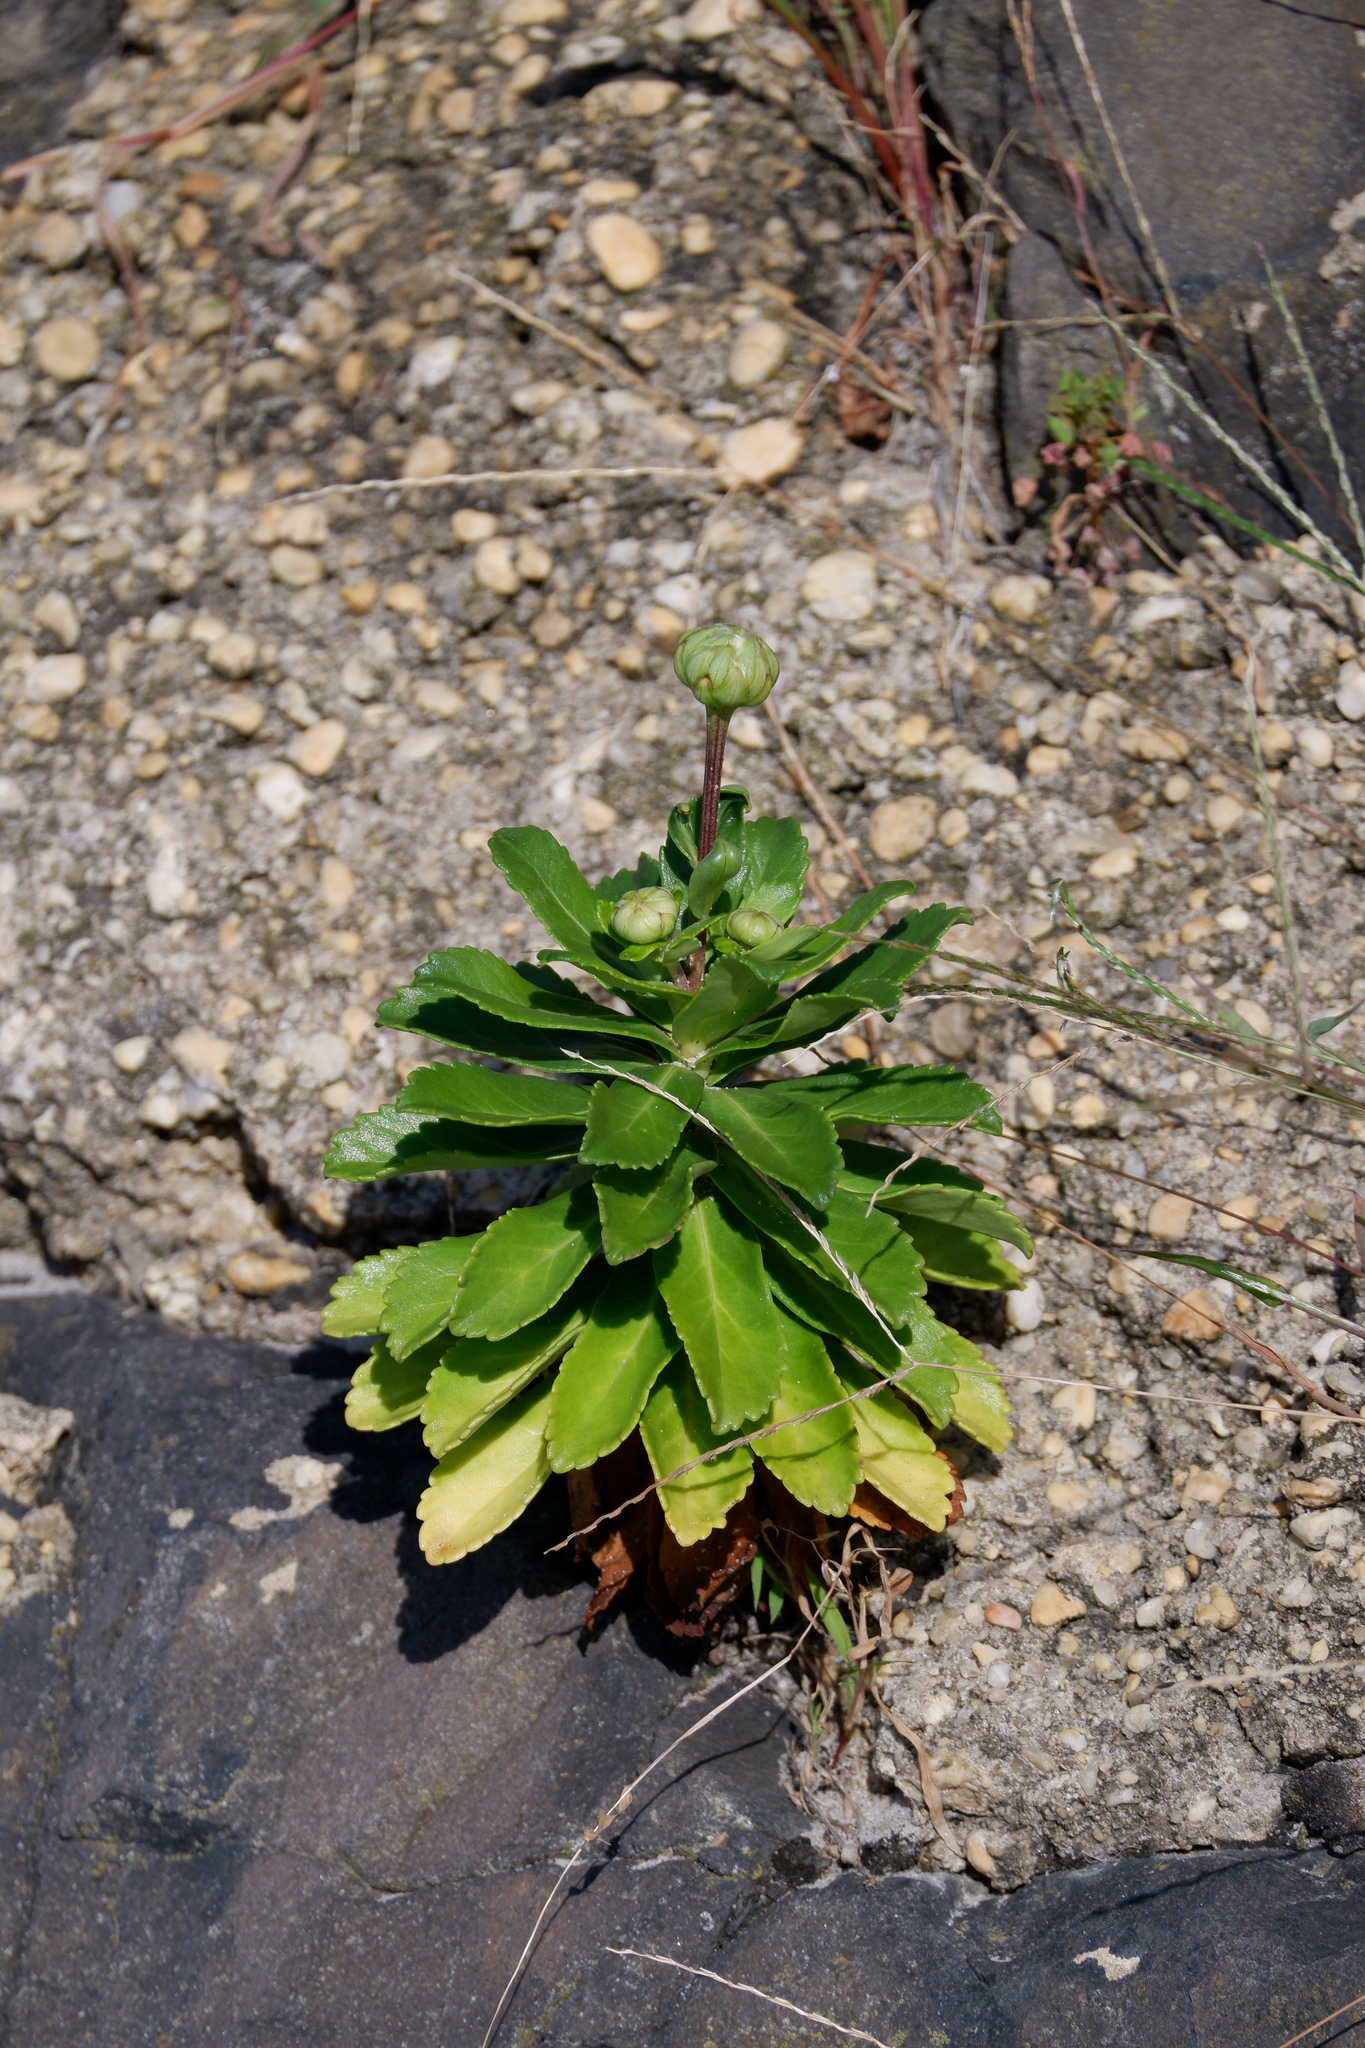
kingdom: Plantae
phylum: Tracheophyta
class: Magnoliopsida
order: Asterales
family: Asteraceae
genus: Nipponanthemum
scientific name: Nipponanthemum nipponicum
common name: Nippon daisy
